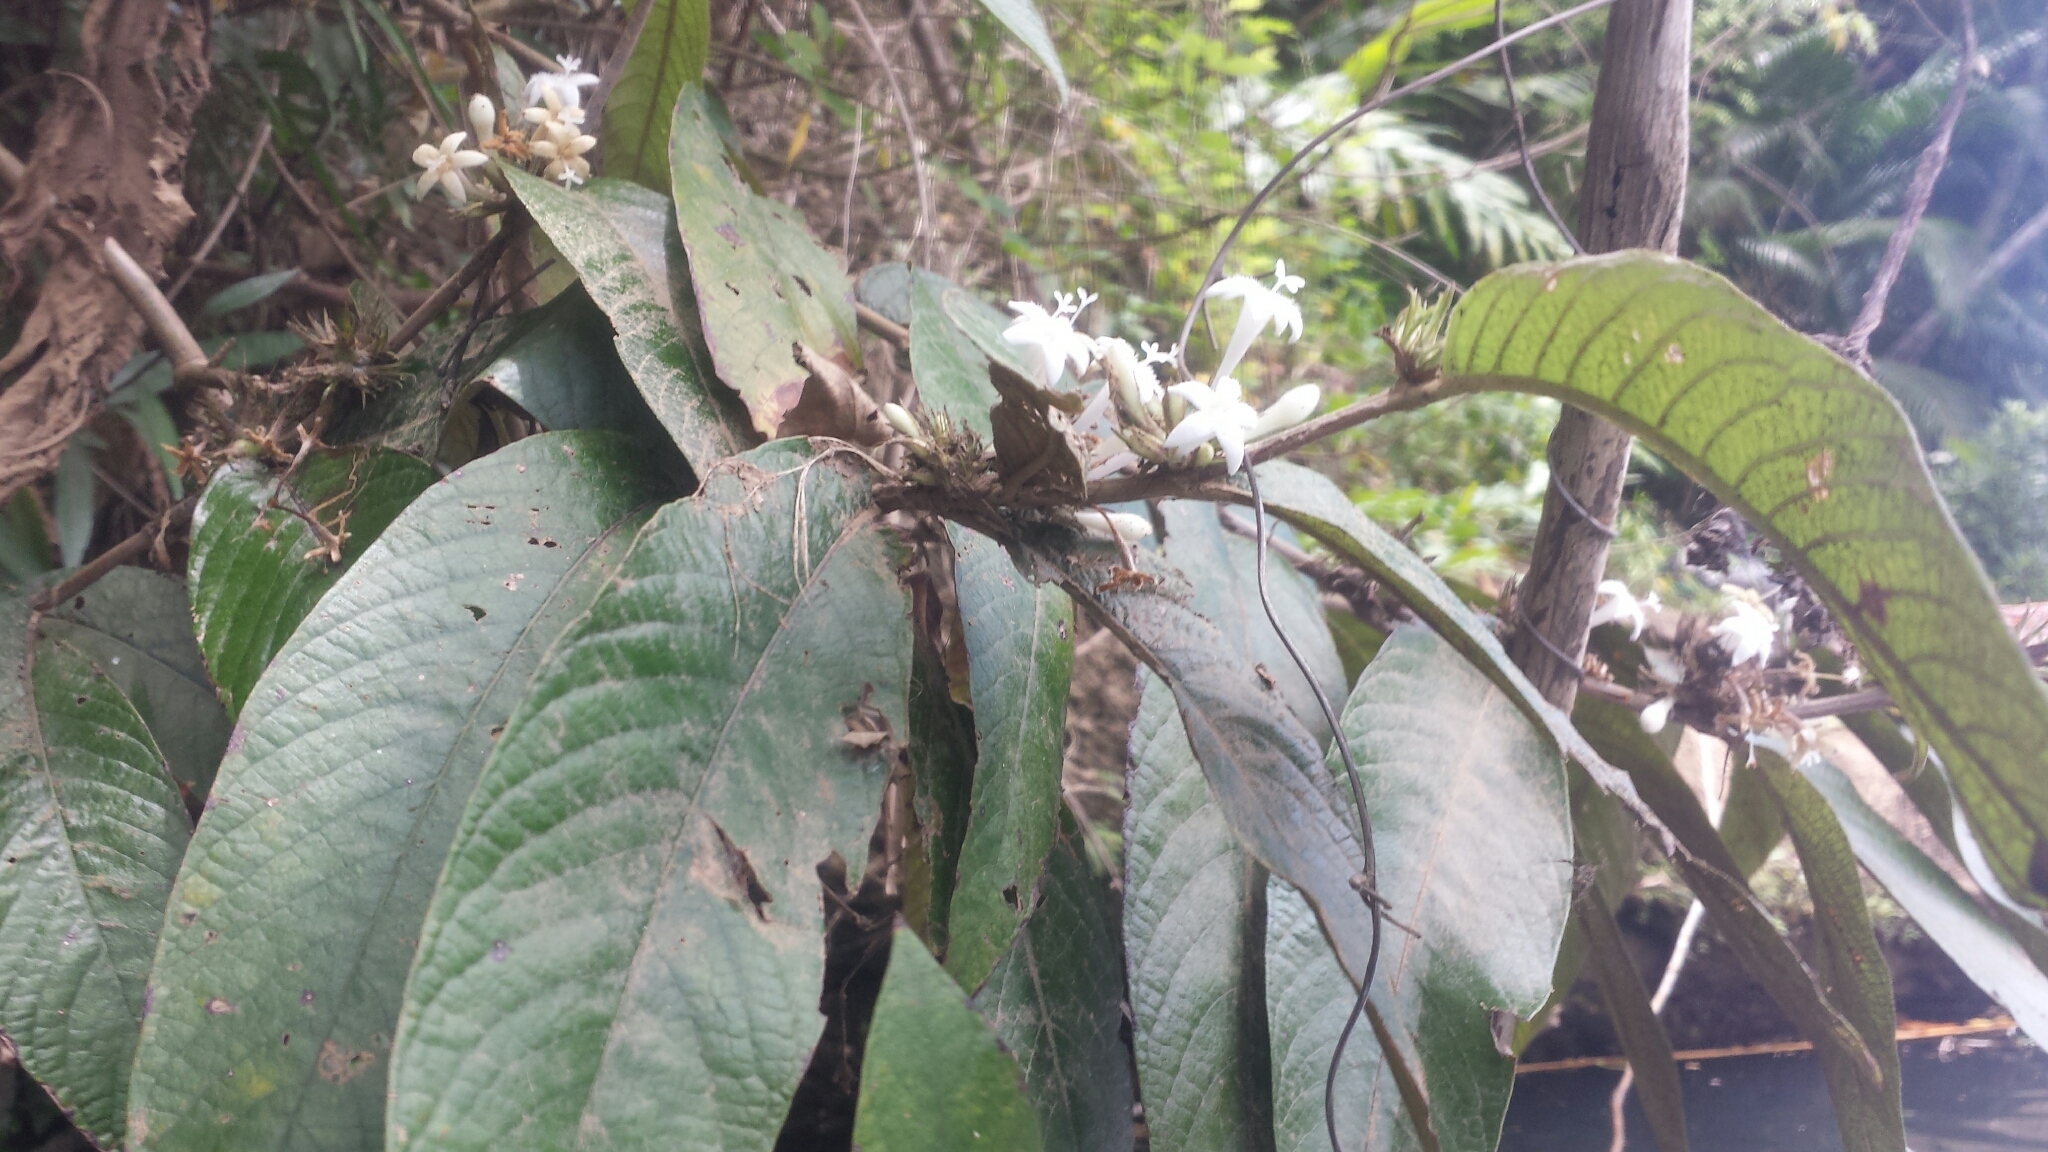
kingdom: Plantae
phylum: Tracheophyta
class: Magnoliopsida
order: Gentianales
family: Rubiaceae
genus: Sabicea
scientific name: Sabicea diversifolia
